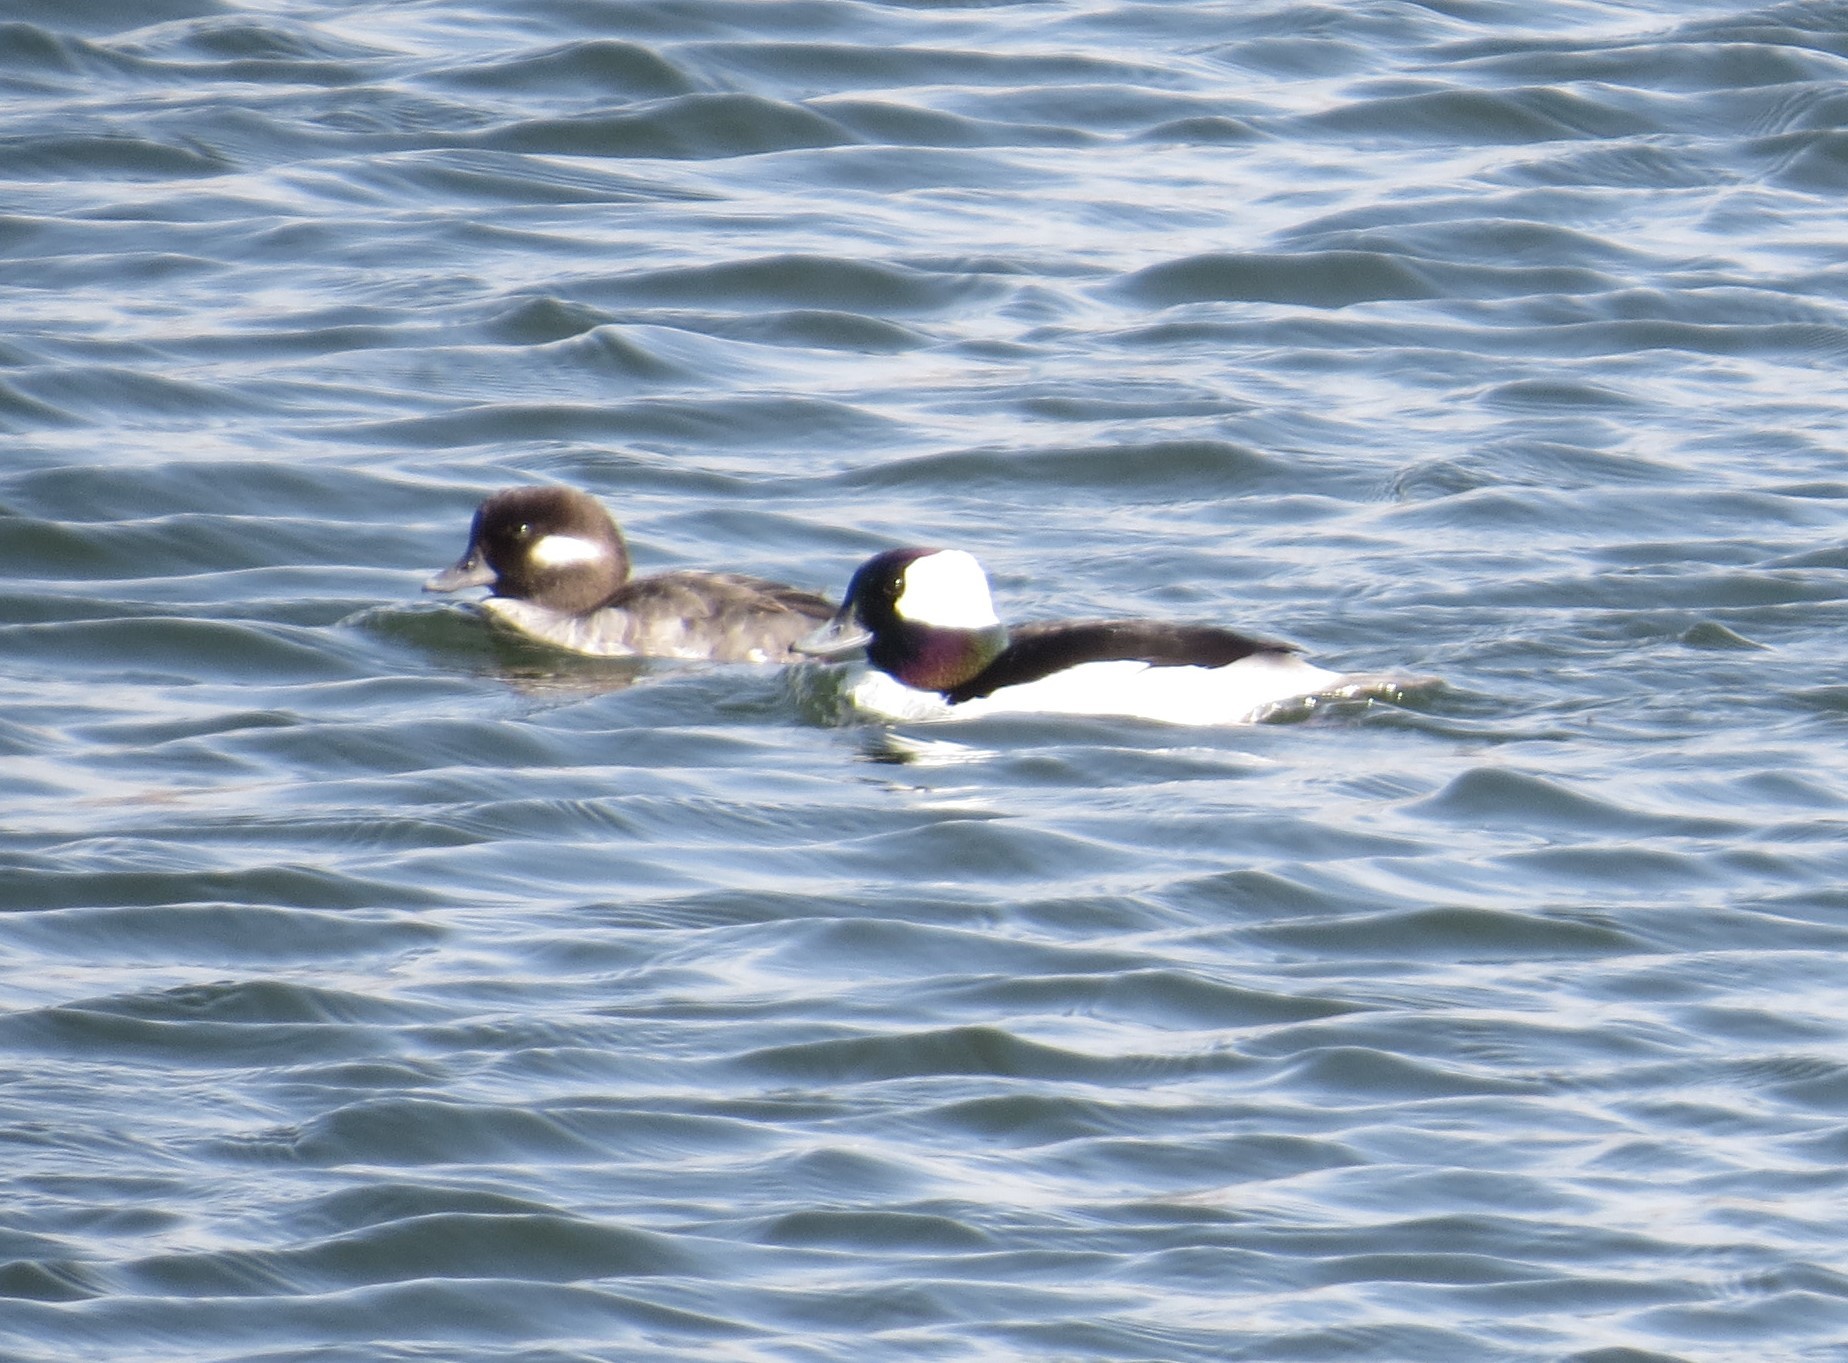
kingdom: Animalia
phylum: Chordata
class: Aves
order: Anseriformes
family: Anatidae
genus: Bucephala
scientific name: Bucephala albeola
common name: Bufflehead
